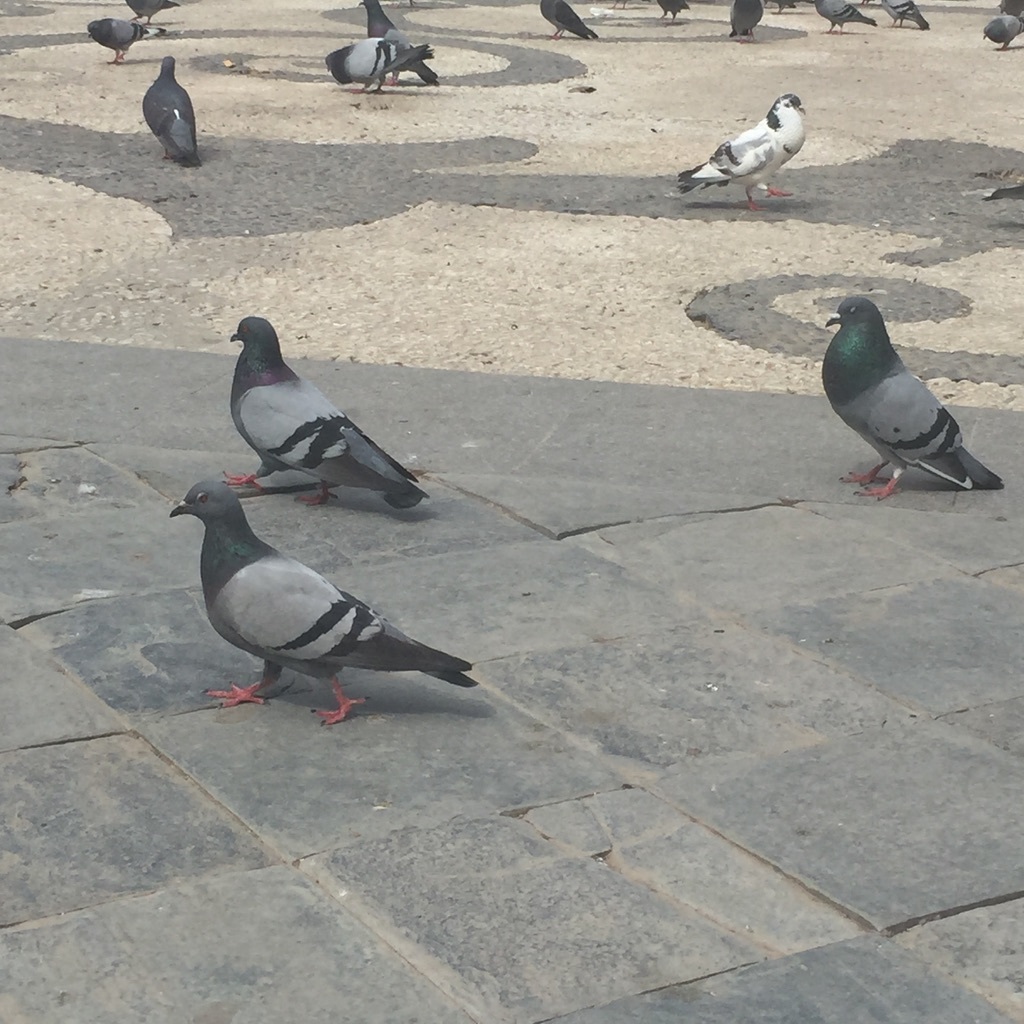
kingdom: Animalia
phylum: Chordata
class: Aves
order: Columbiformes
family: Columbidae
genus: Columba
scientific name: Columba livia
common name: Rock pigeon
